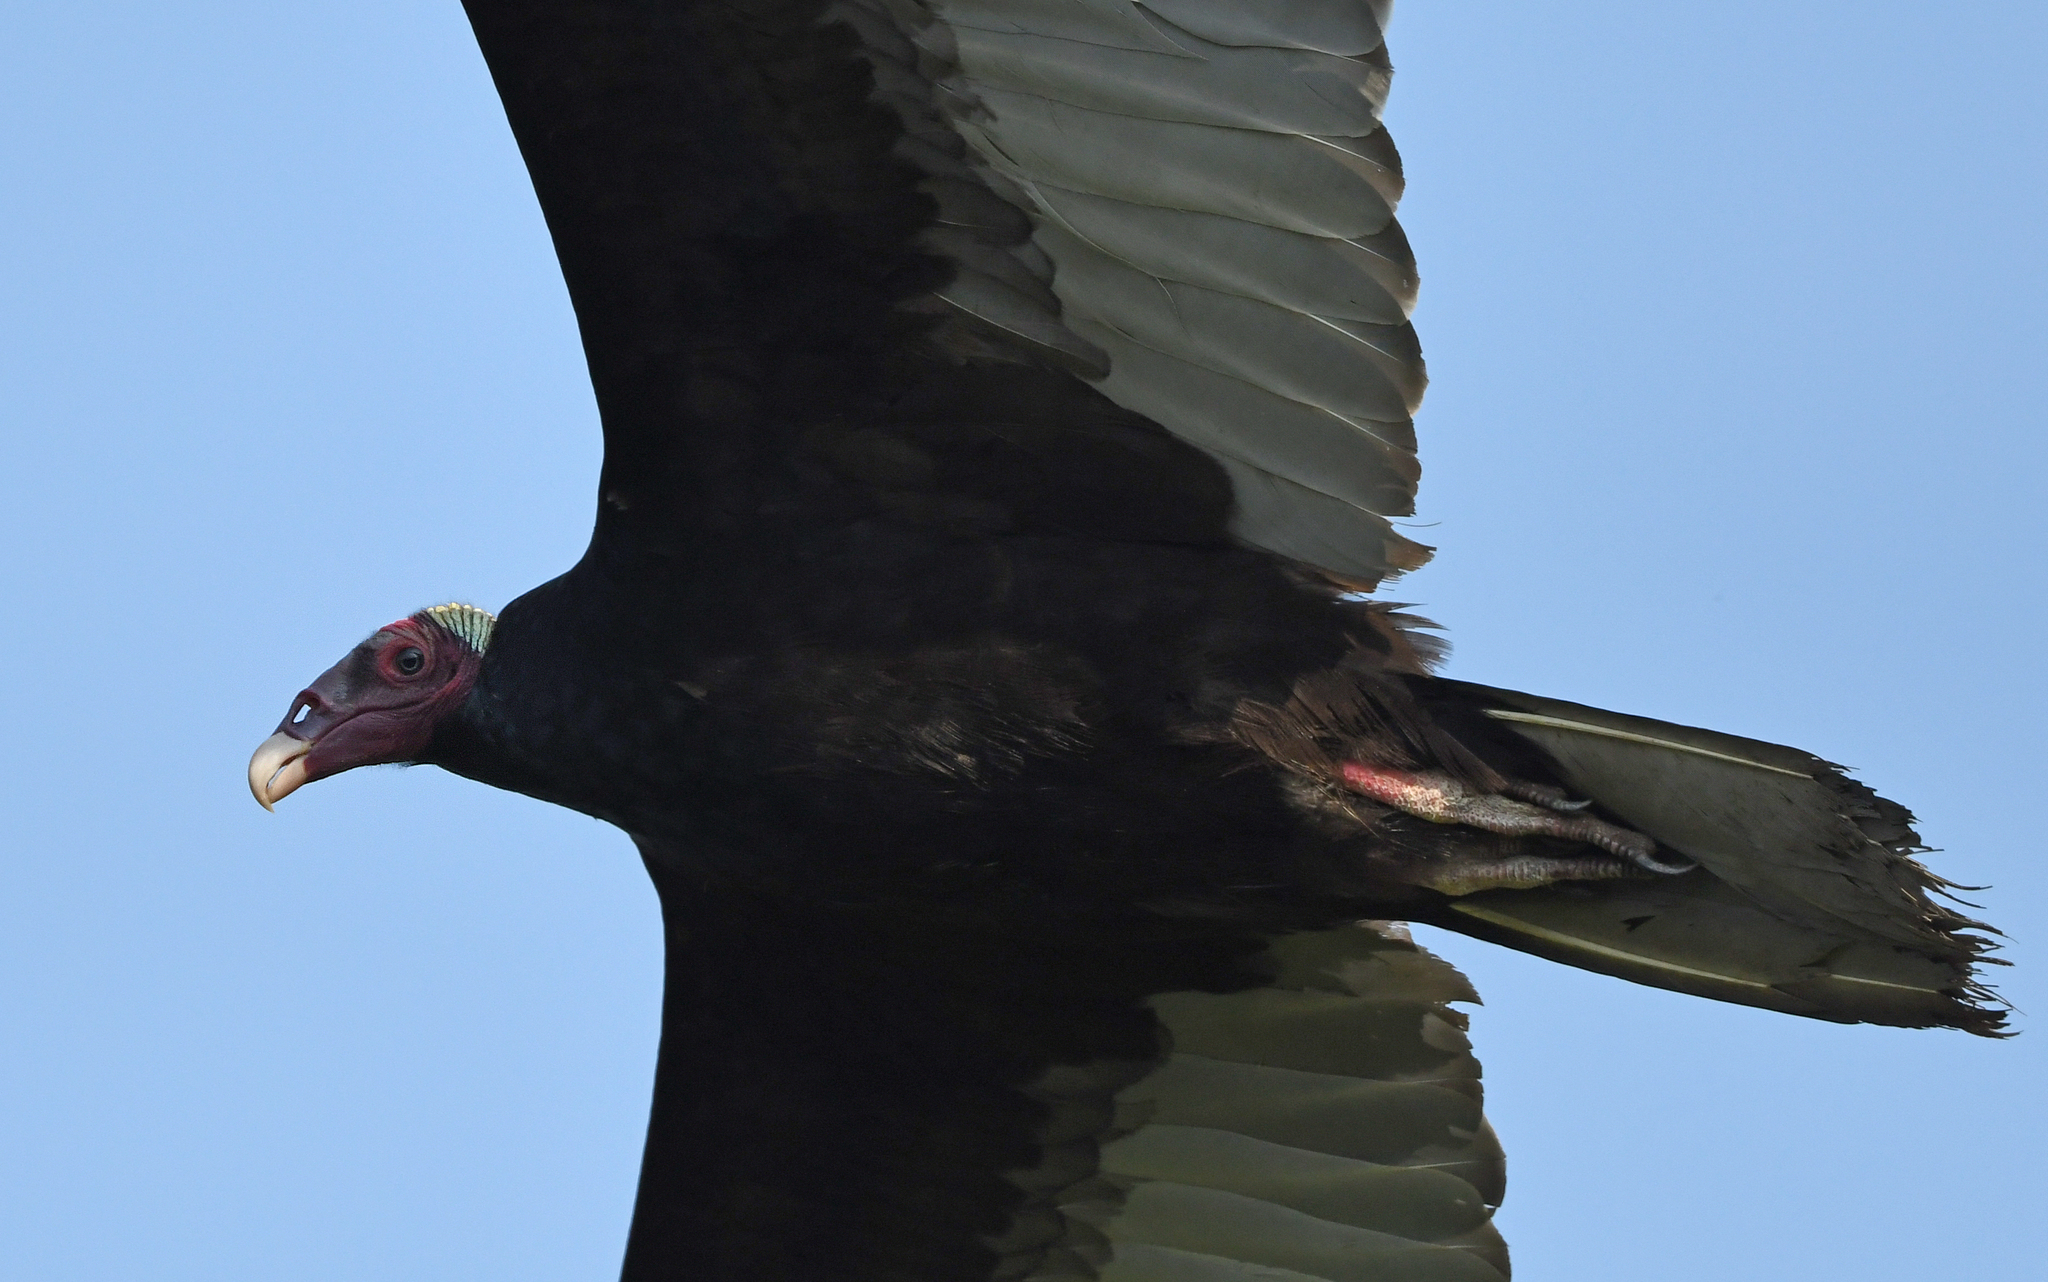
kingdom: Animalia
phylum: Chordata
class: Aves
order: Accipitriformes
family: Cathartidae
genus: Cathartes
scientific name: Cathartes aura
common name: Turkey vulture
